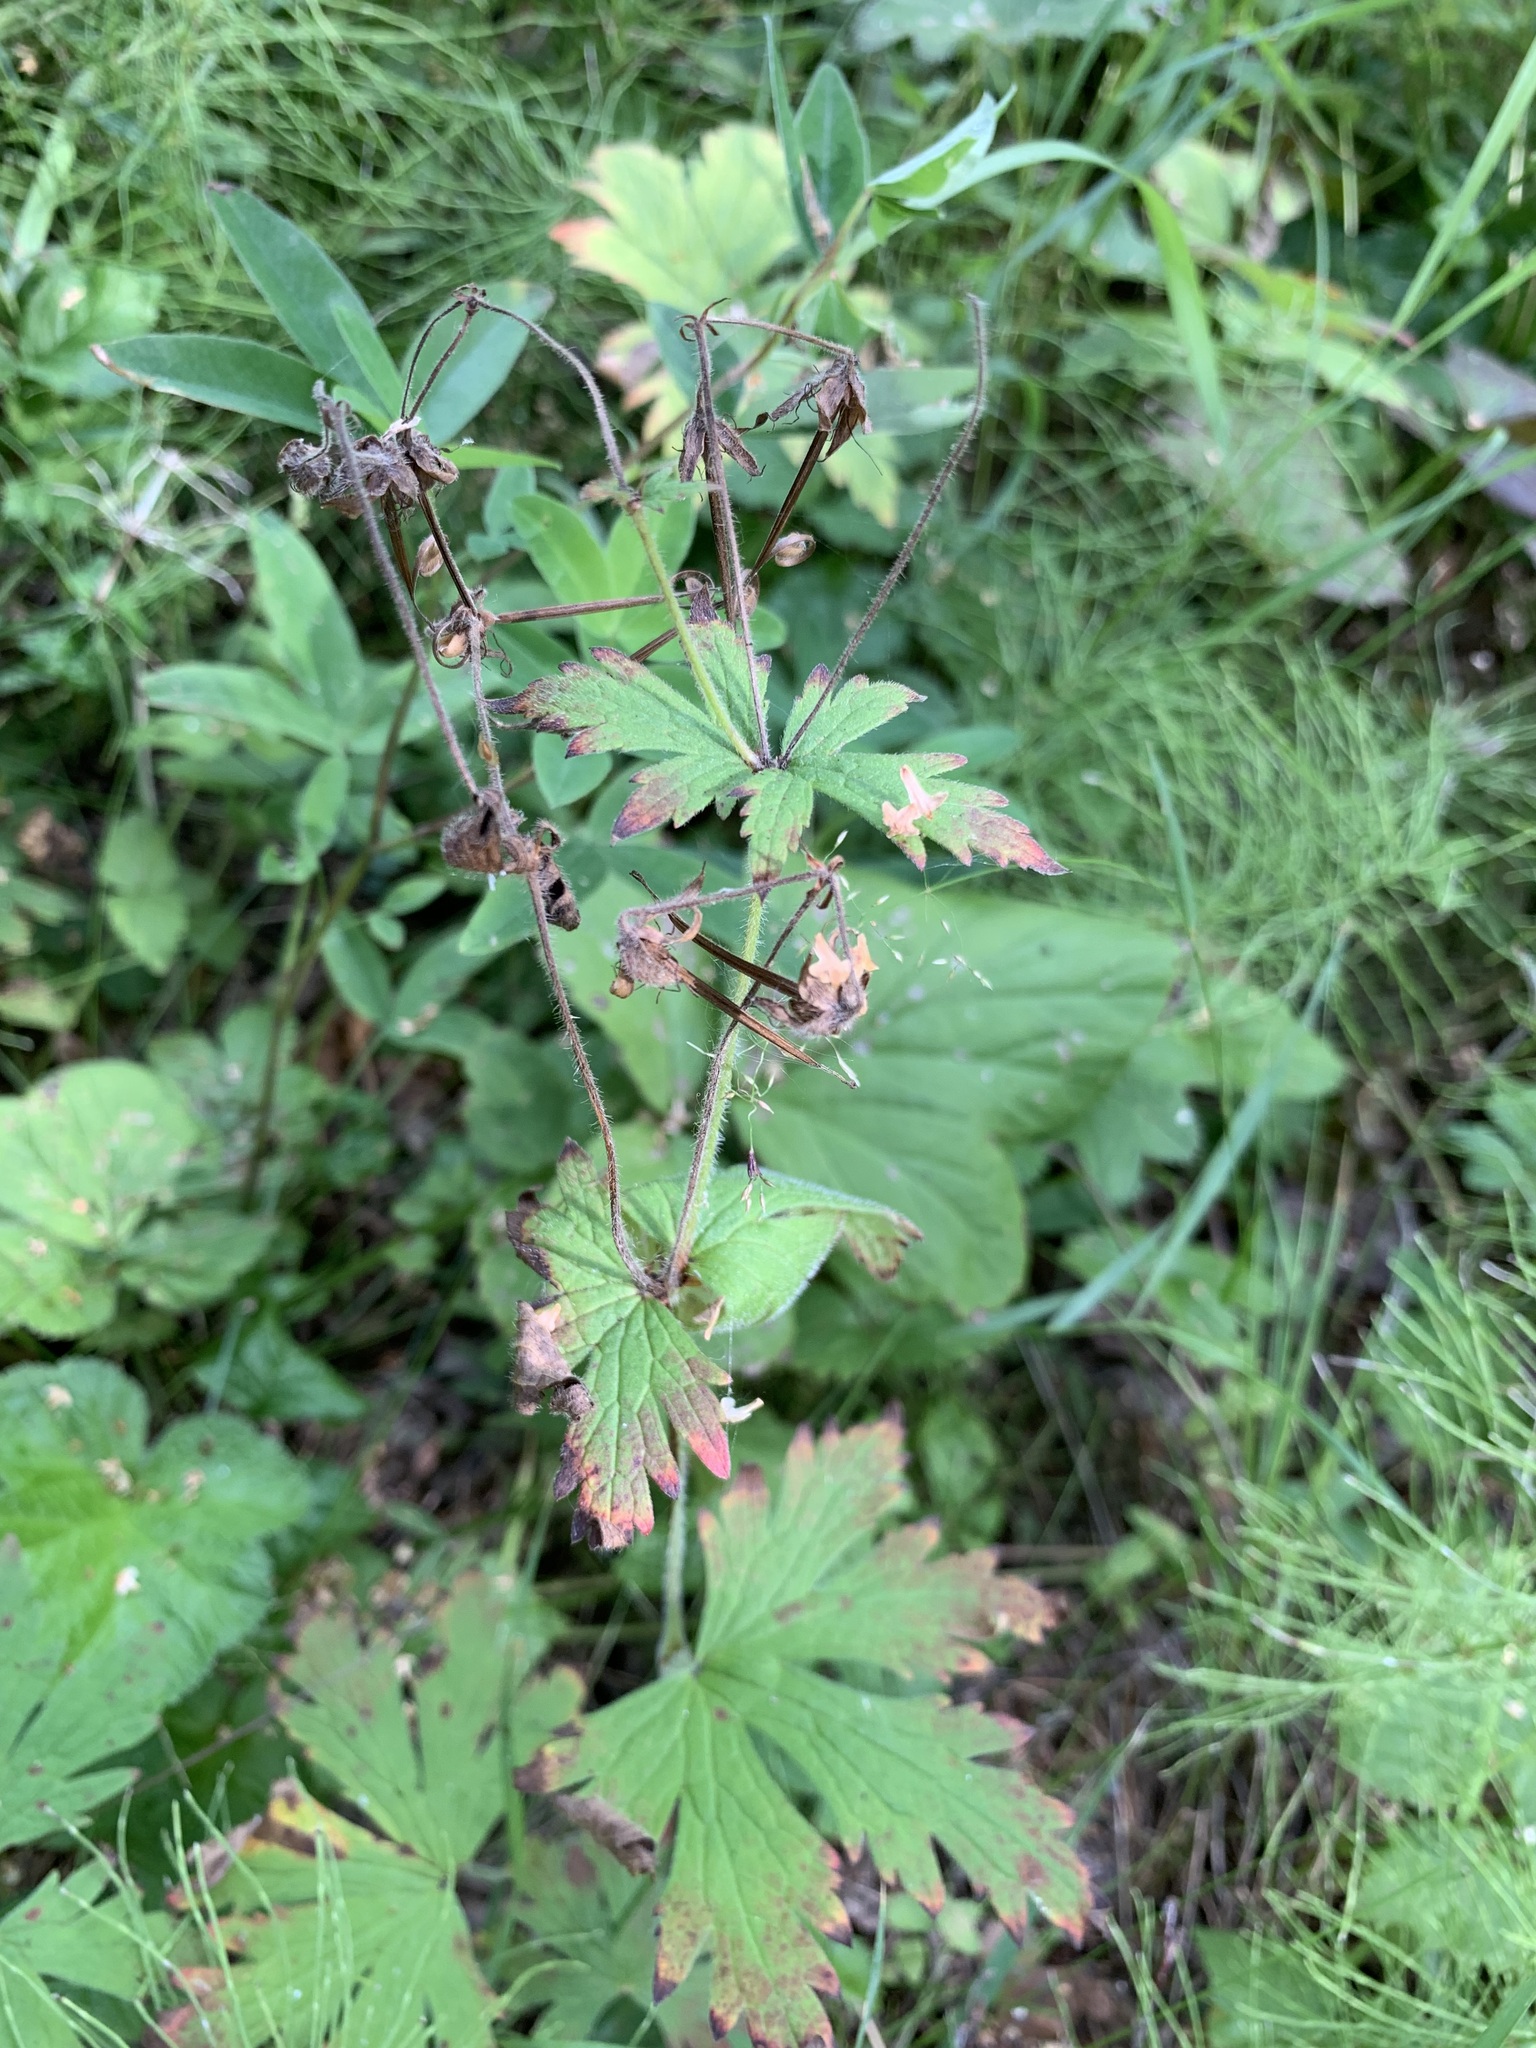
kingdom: Plantae
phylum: Tracheophyta
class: Magnoliopsida
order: Geraniales
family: Geraniaceae
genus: Geranium
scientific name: Geranium sylvaticum
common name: Wood crane's-bill
